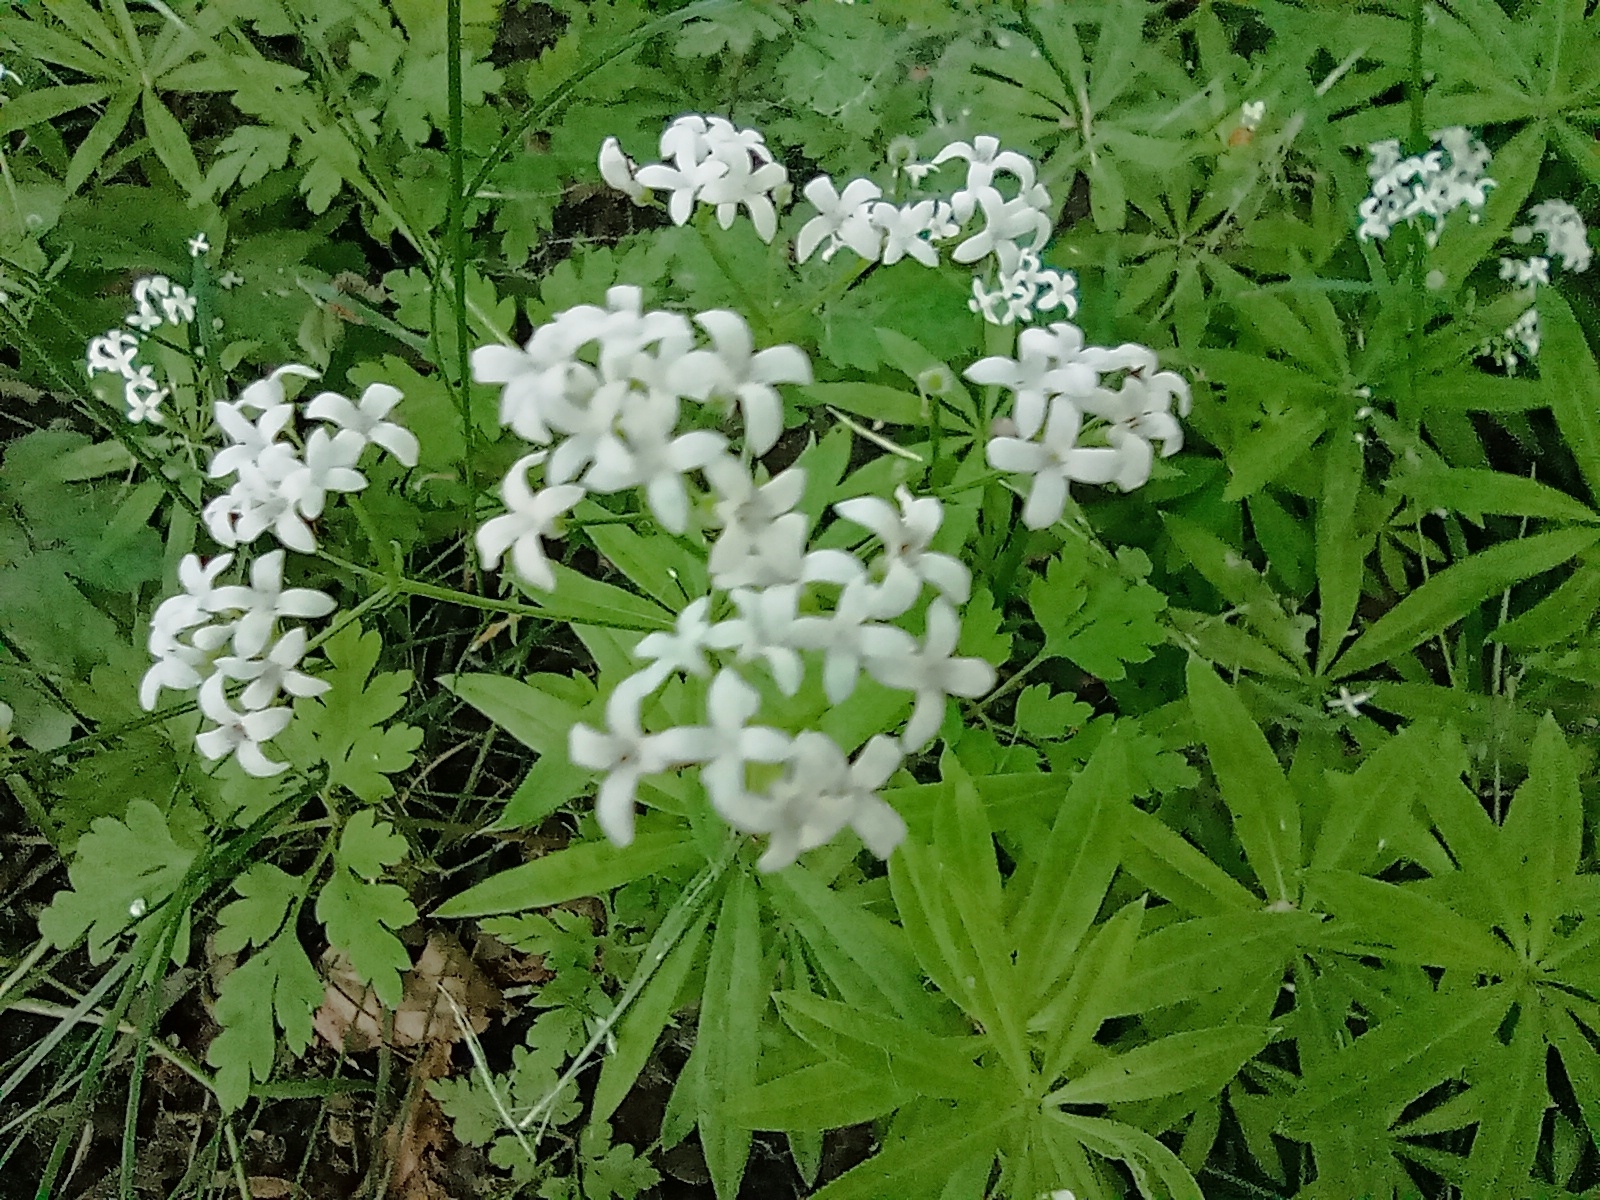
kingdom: Plantae
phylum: Tracheophyta
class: Magnoliopsida
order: Gentianales
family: Rubiaceae
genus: Galium
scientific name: Galium odoratum
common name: Sweet woodruff
